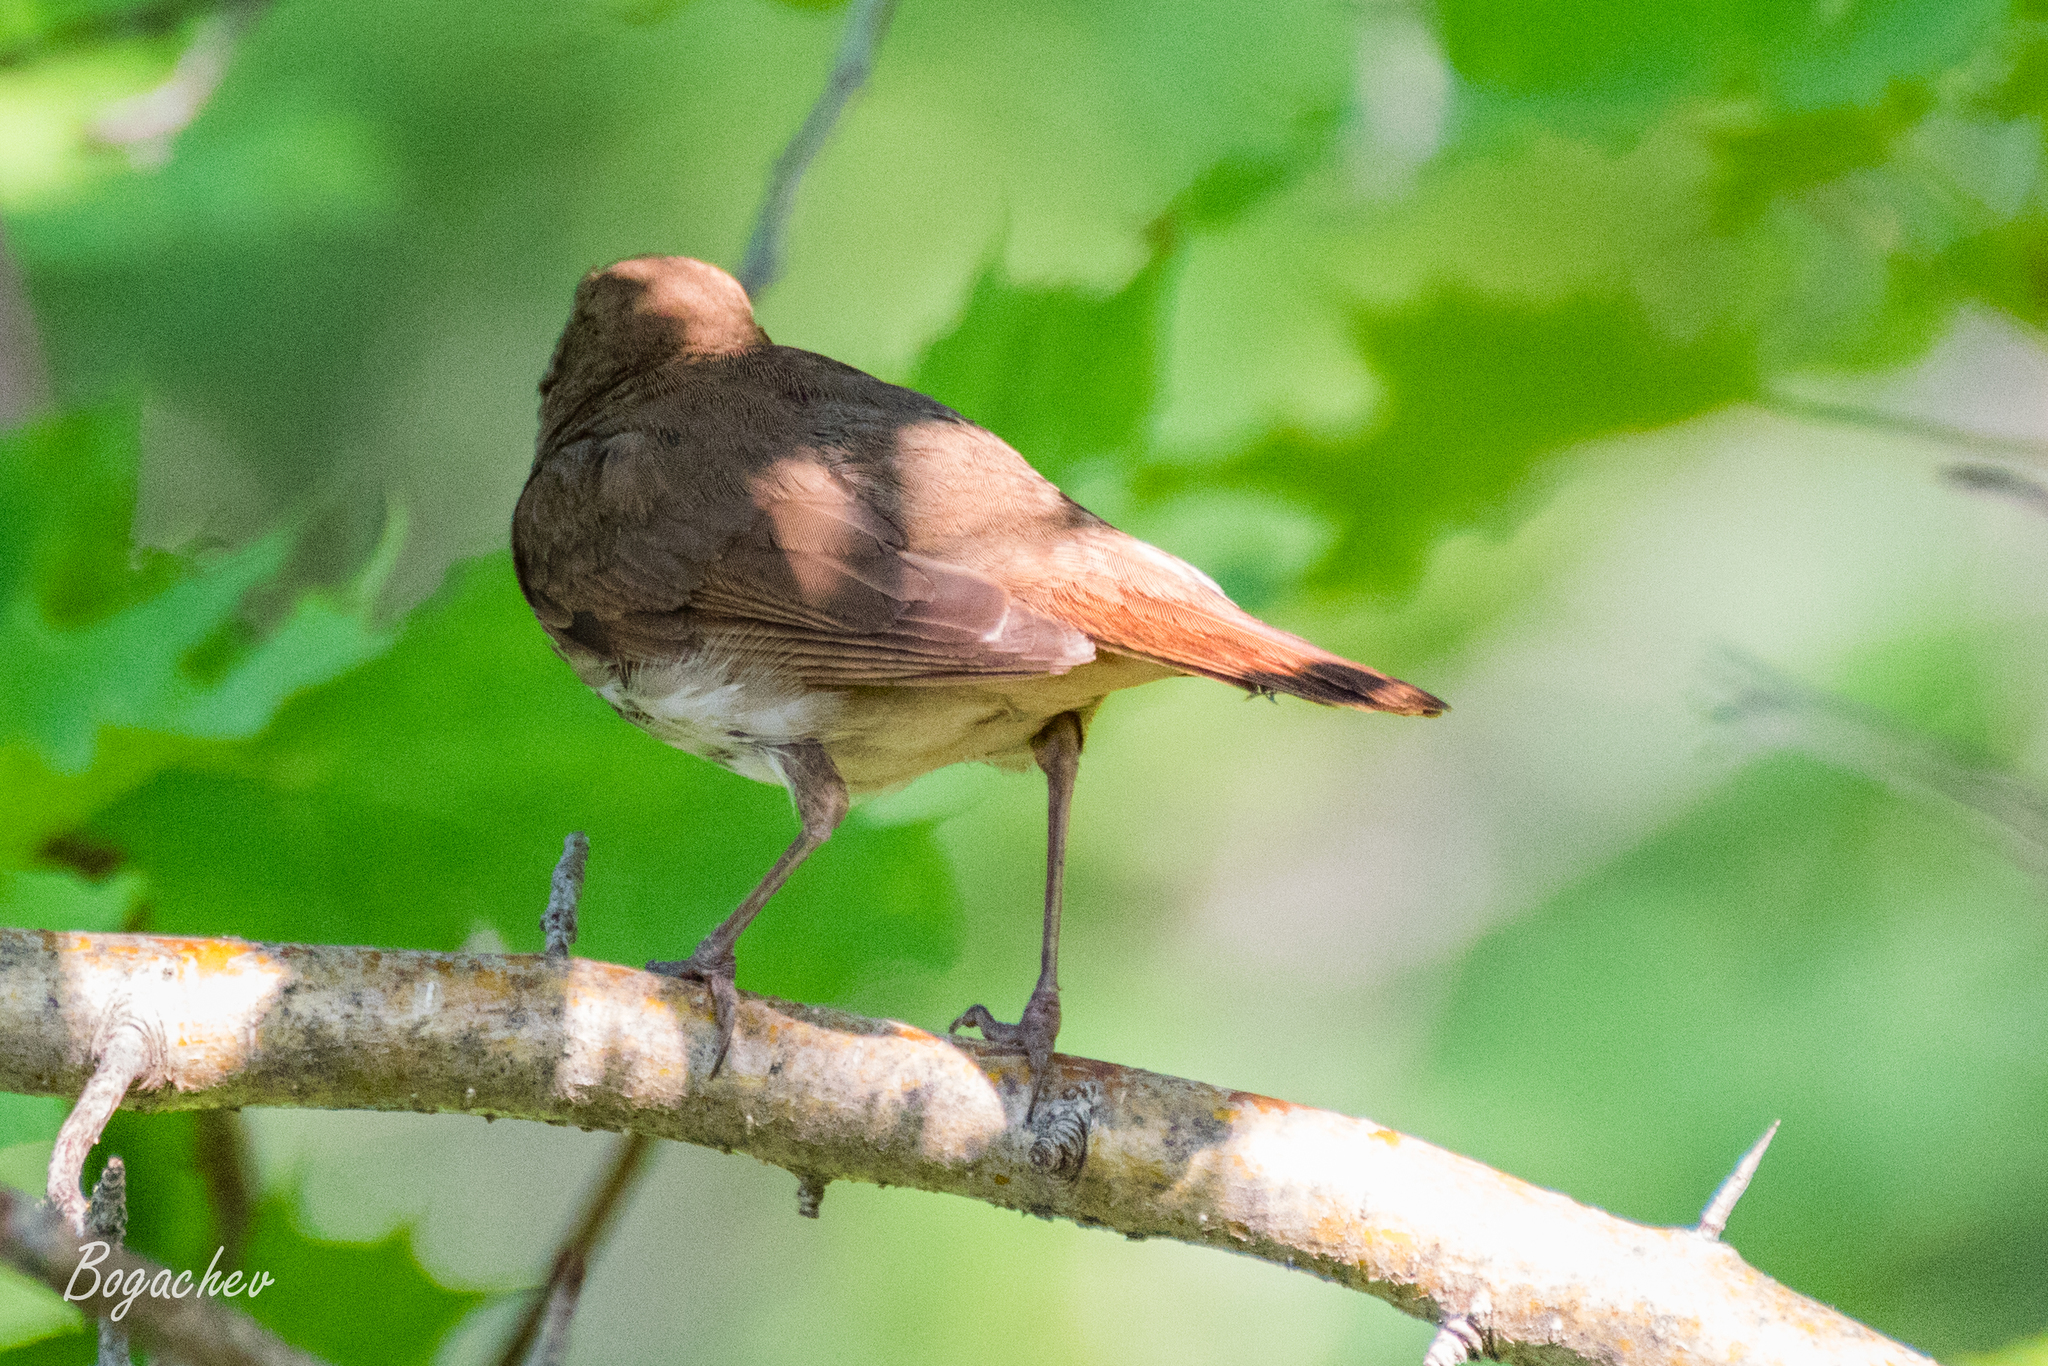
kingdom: Animalia
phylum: Chordata
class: Aves
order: Passeriformes
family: Muscicapidae
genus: Luscinia
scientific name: Luscinia luscinia
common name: Thrush nightingale
